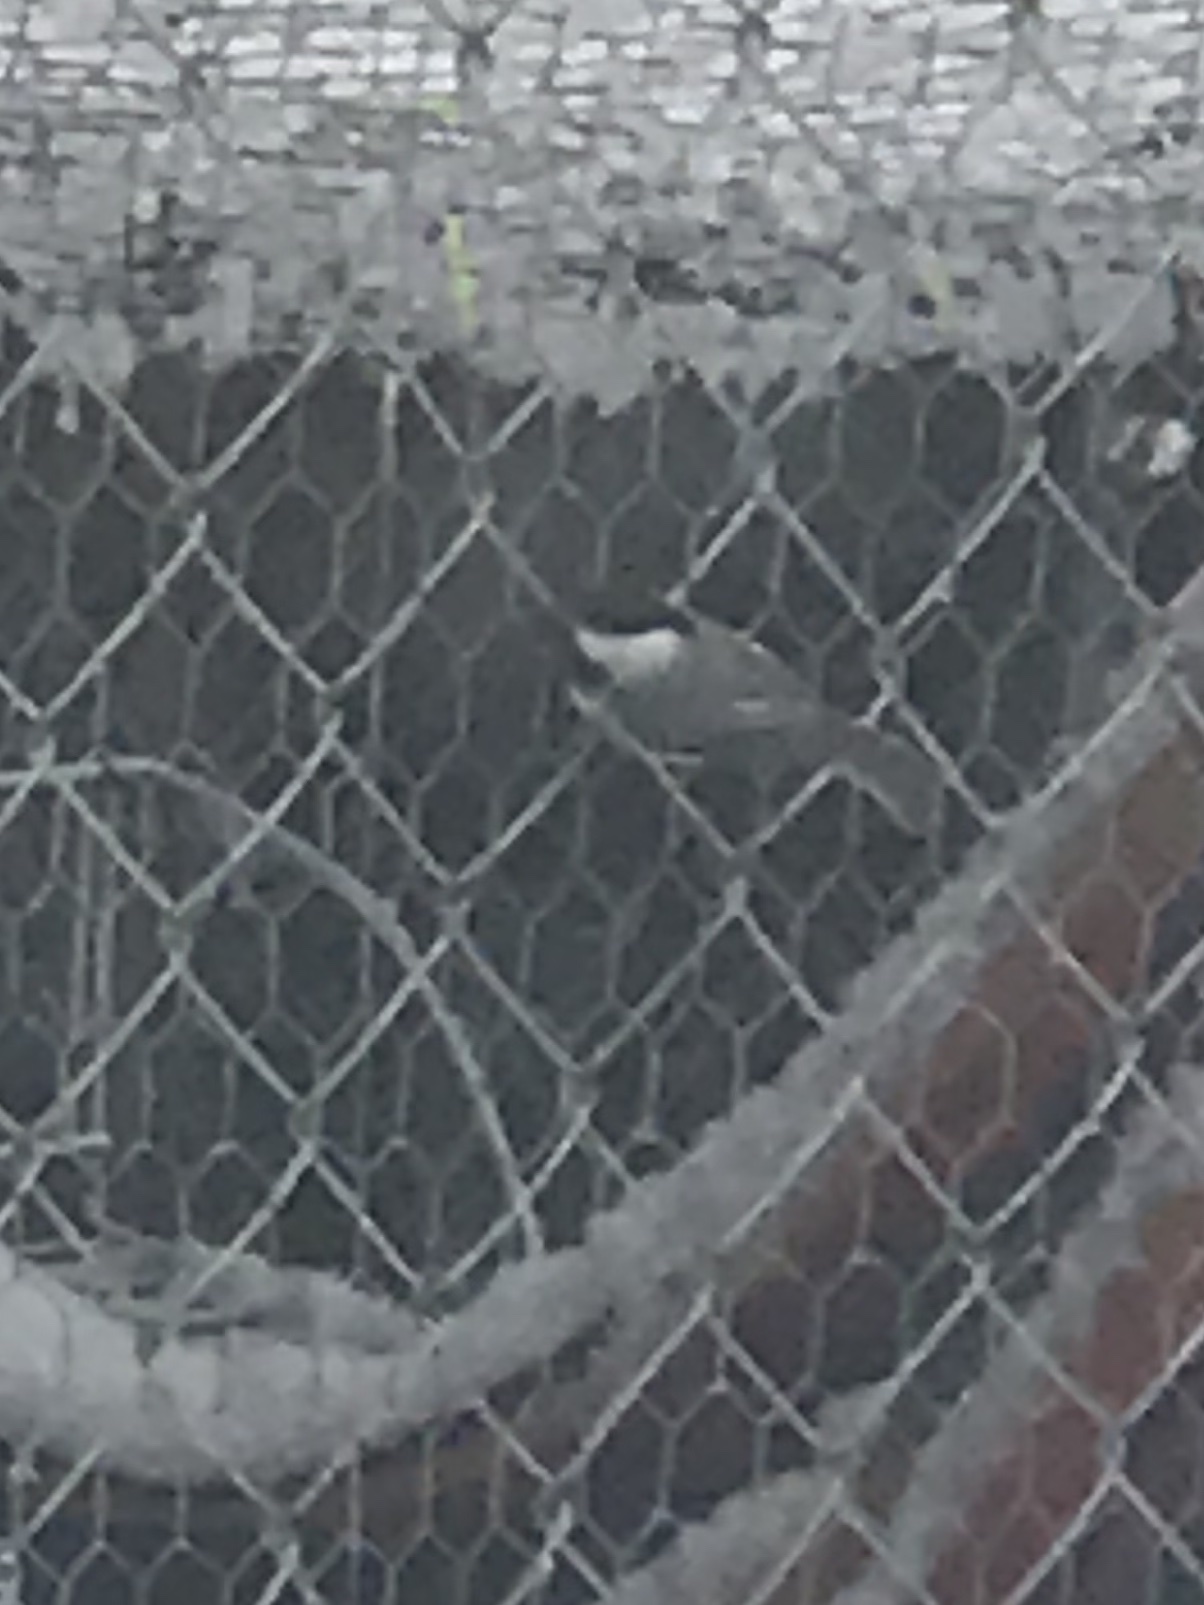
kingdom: Animalia
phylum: Chordata
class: Aves
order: Passeriformes
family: Paridae
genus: Poecile
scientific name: Poecile carolinensis
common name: Carolina chickadee
